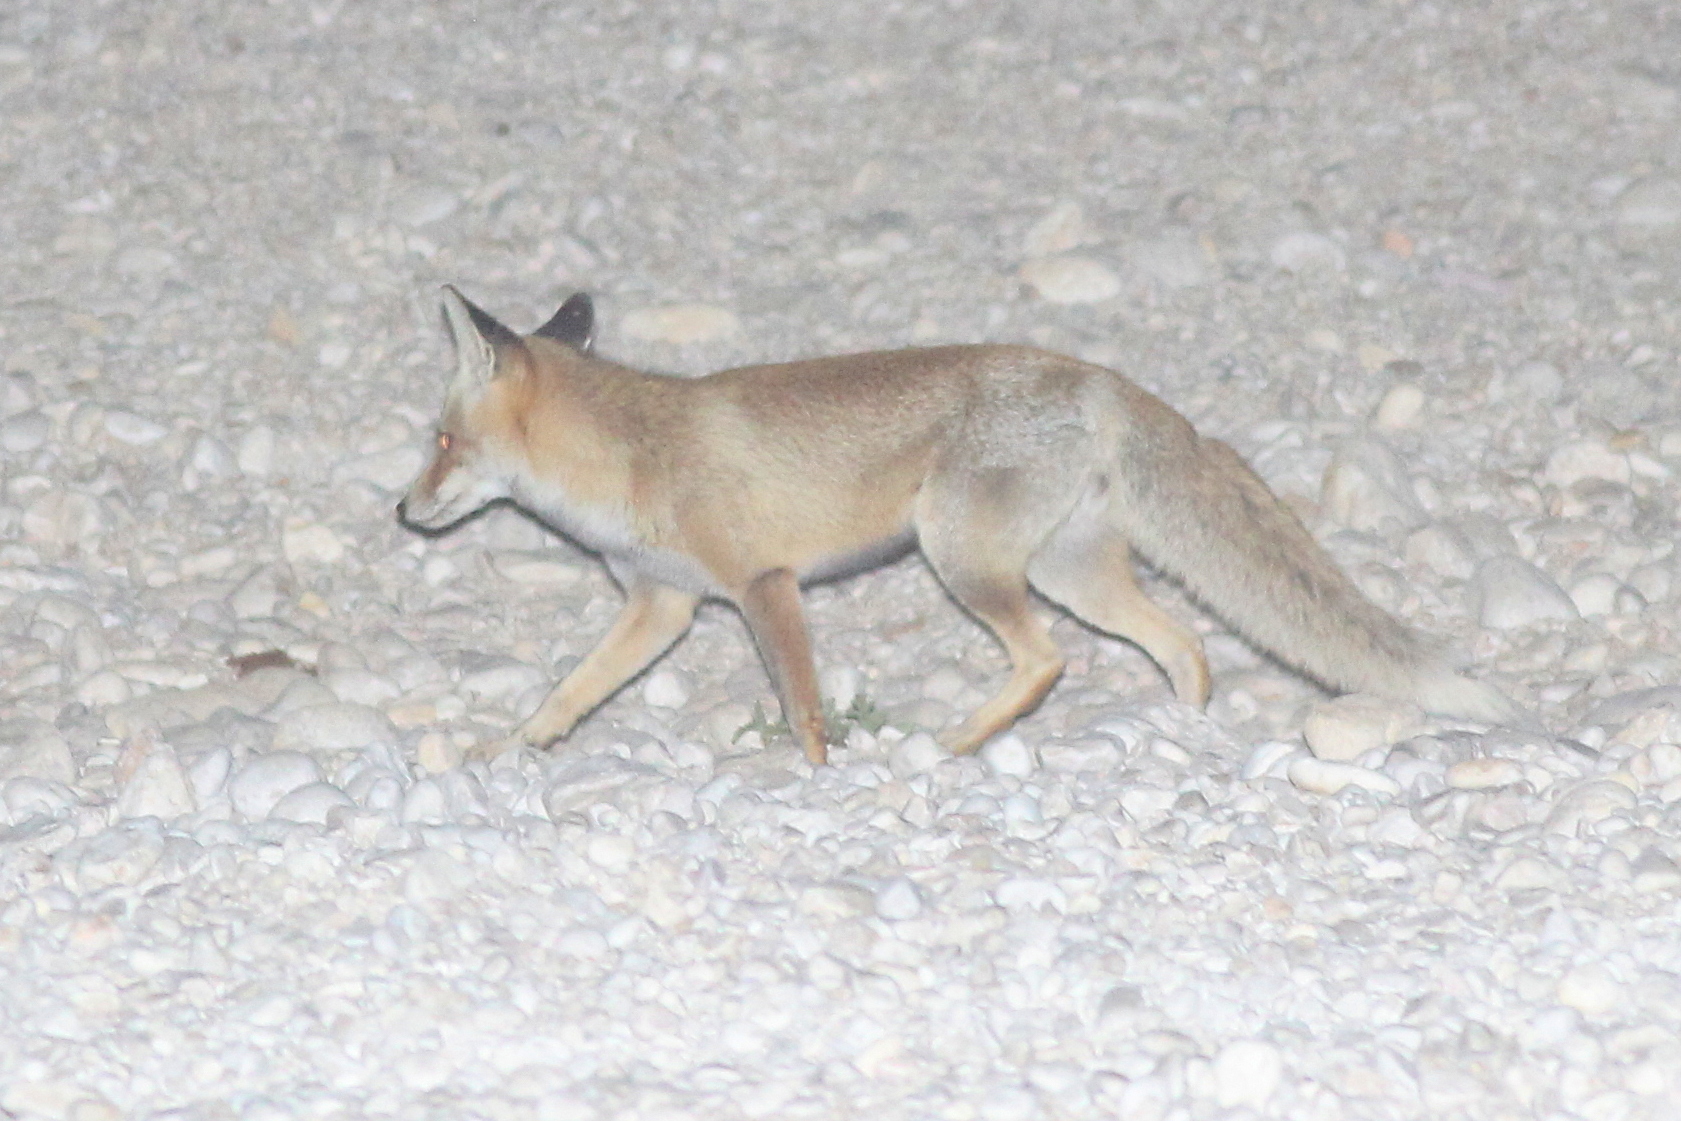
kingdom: Animalia
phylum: Chordata
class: Mammalia
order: Carnivora
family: Canidae
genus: Vulpes
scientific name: Vulpes vulpes
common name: Red fox
